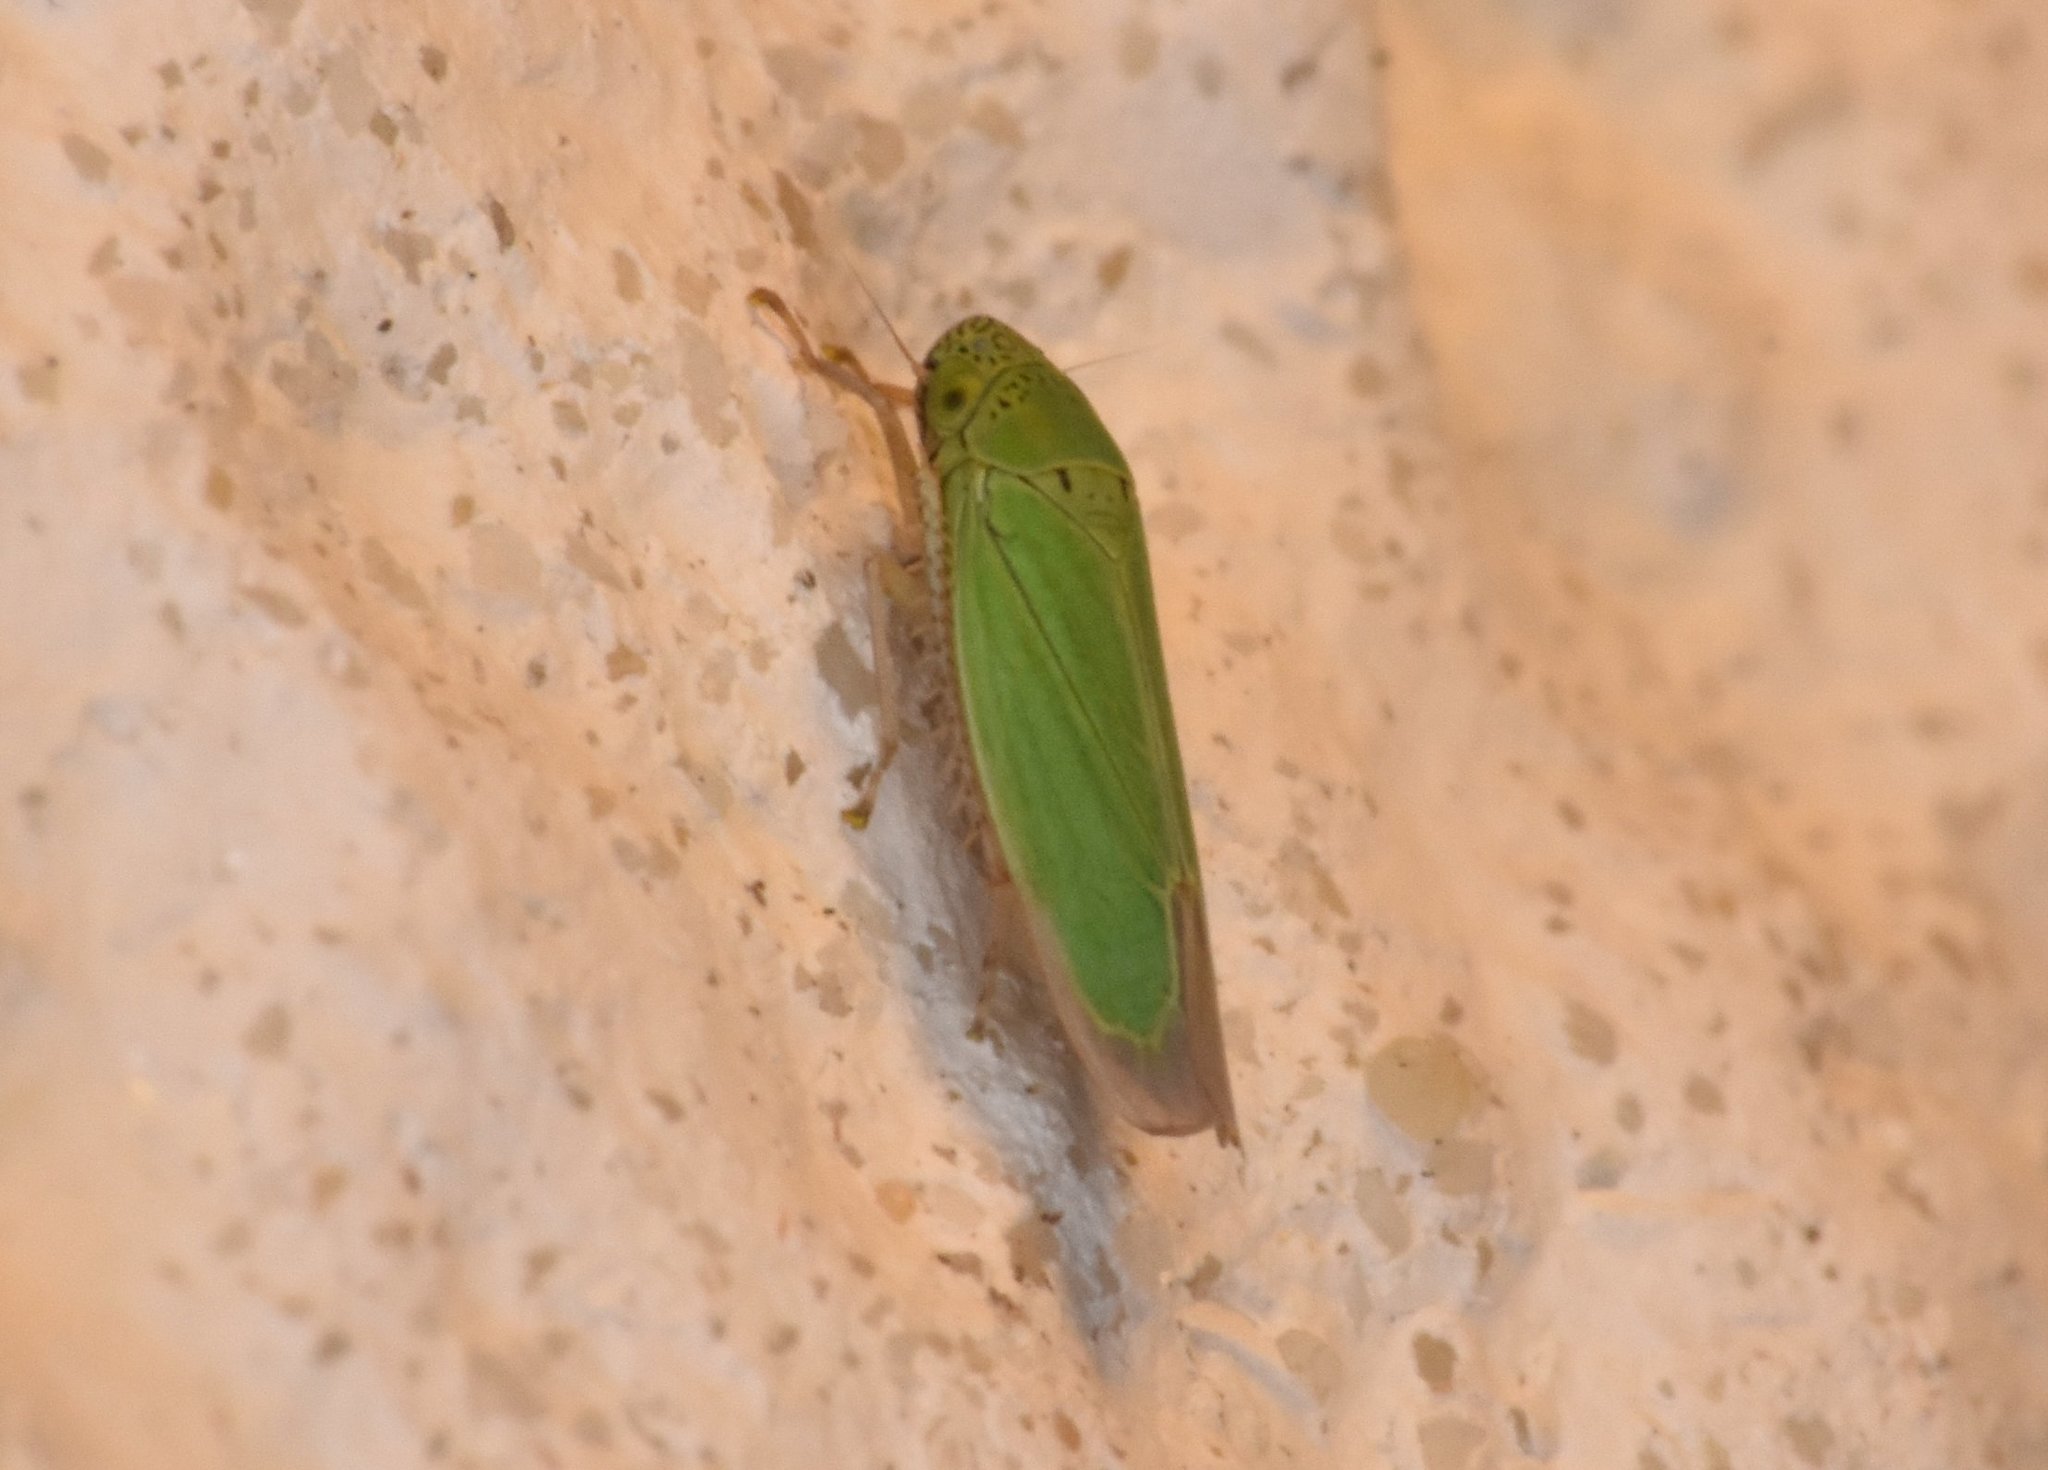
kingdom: Animalia
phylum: Arthropoda
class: Insecta
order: Hemiptera
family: Cicadellidae
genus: Hortensia
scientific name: Hortensia similis
